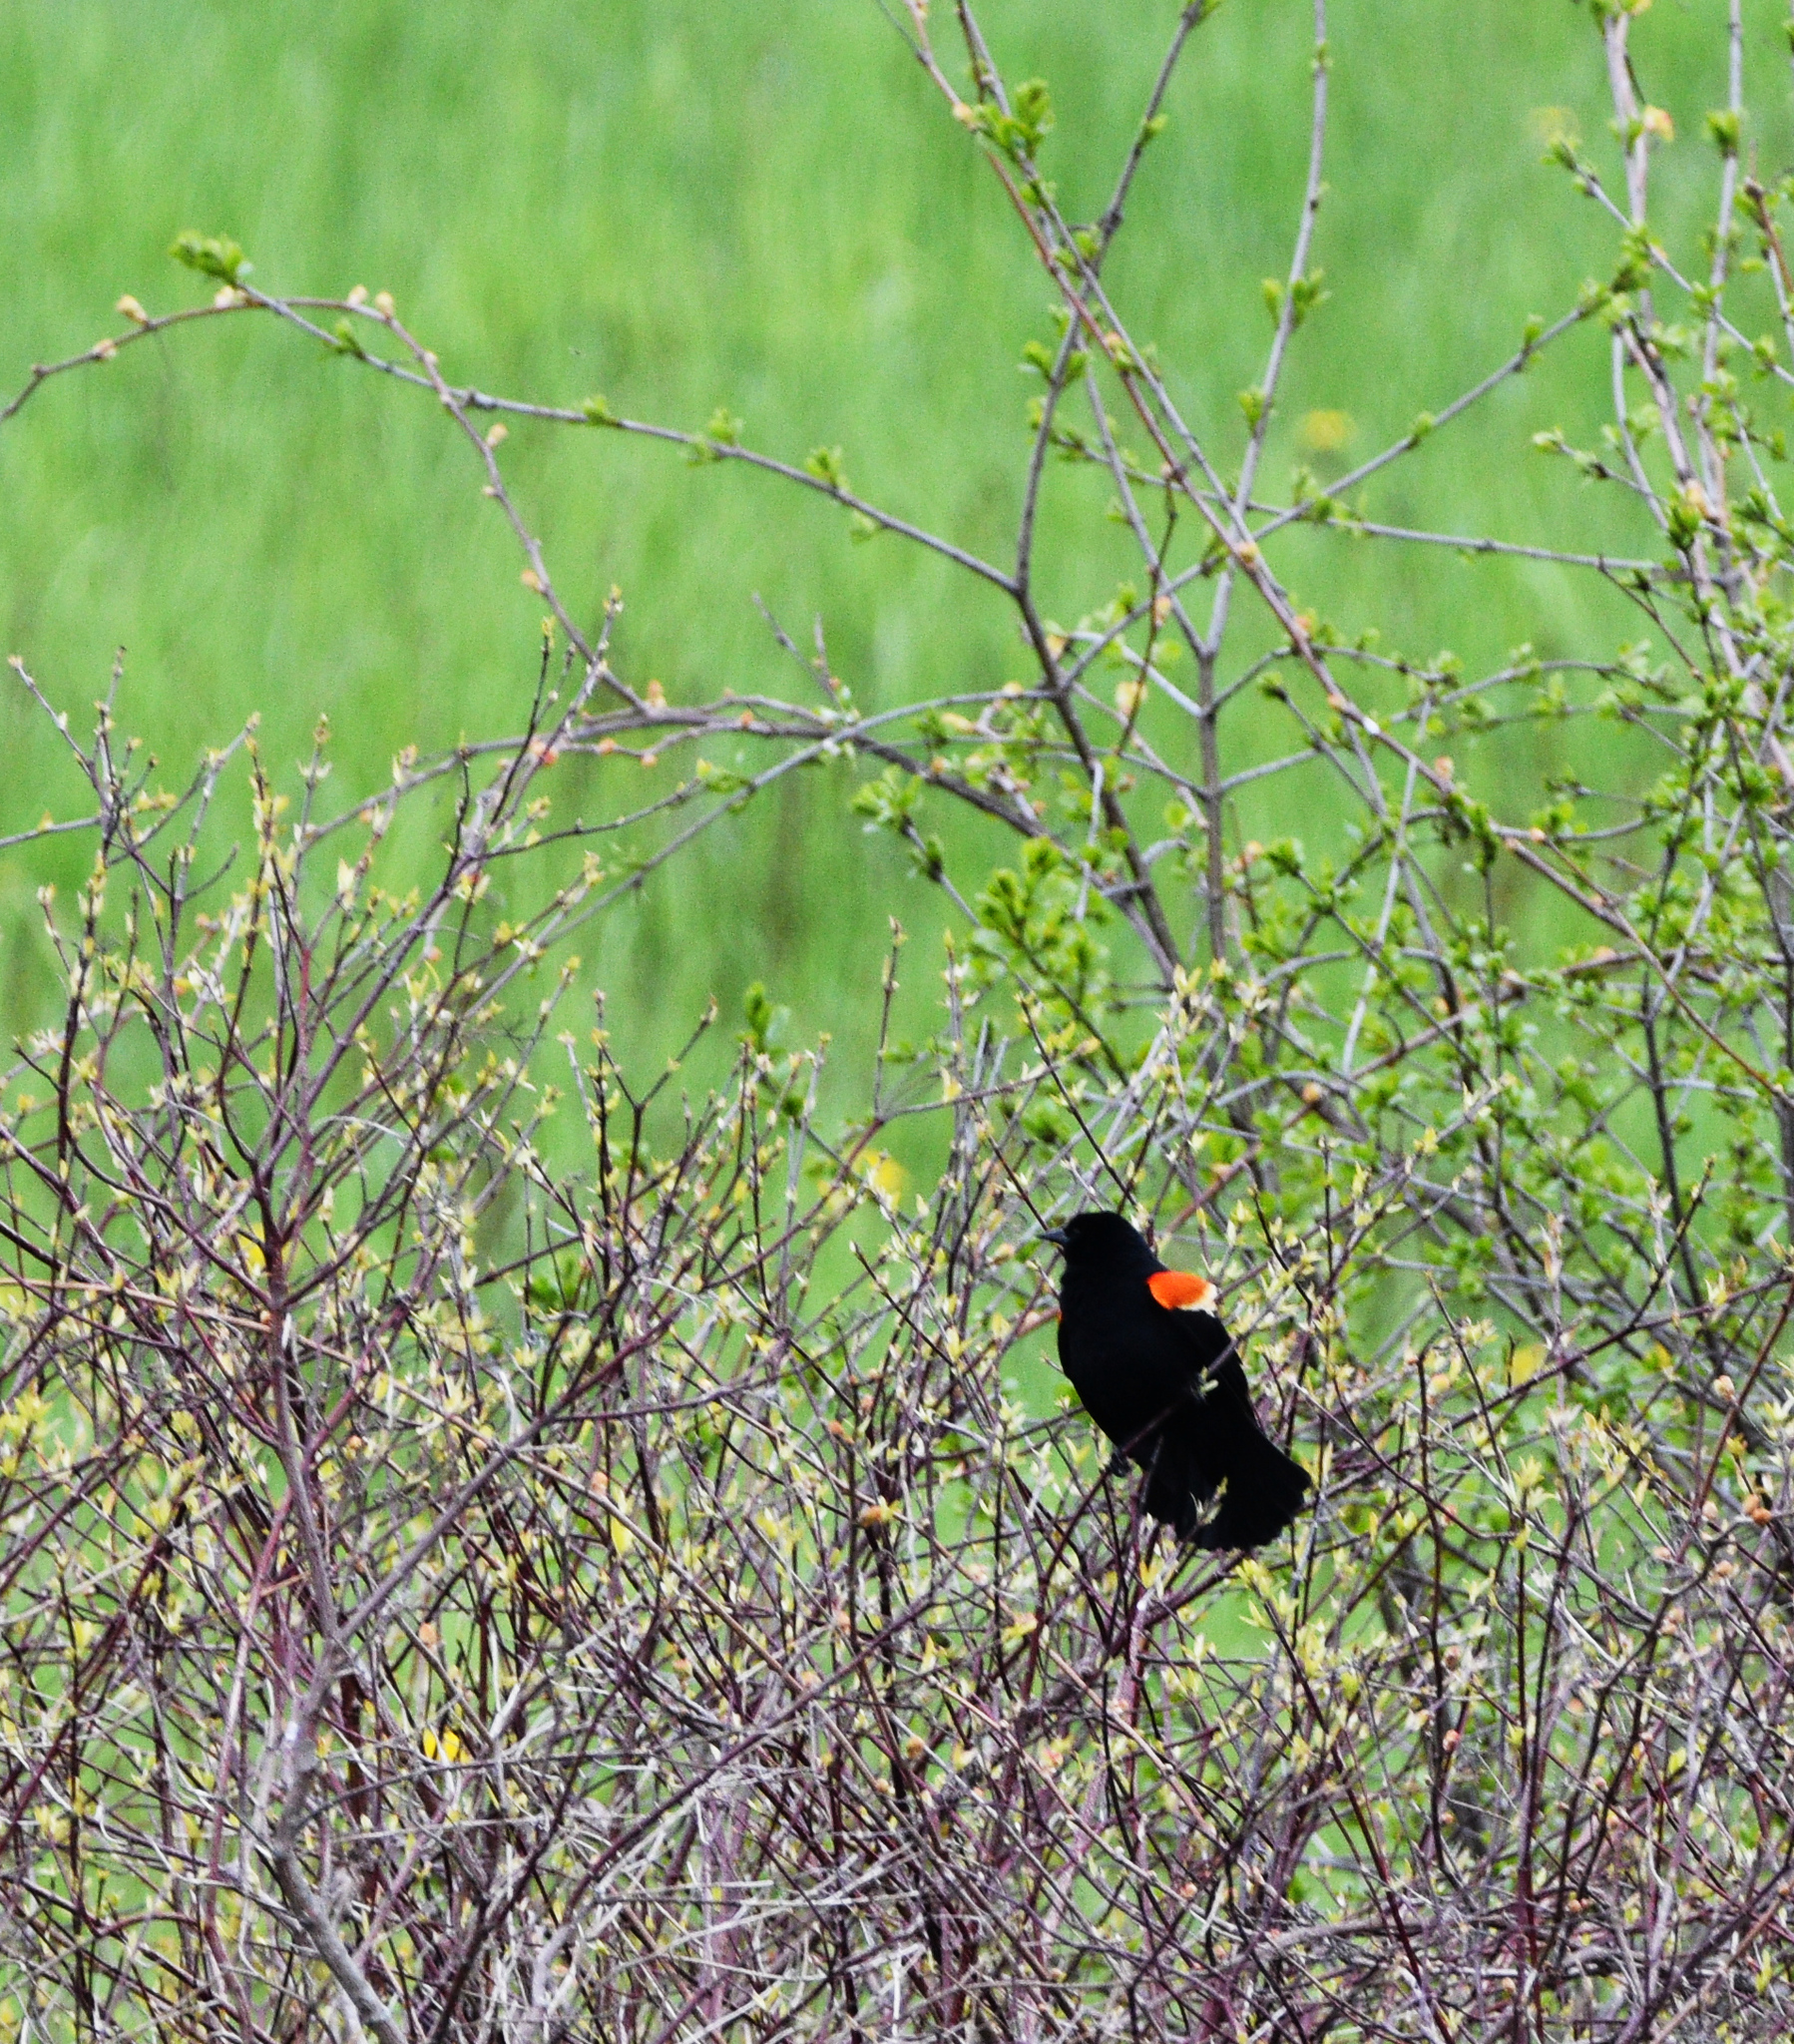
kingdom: Animalia
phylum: Chordata
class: Aves
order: Passeriformes
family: Icteridae
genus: Agelaius
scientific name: Agelaius phoeniceus
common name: Red-winged blackbird
